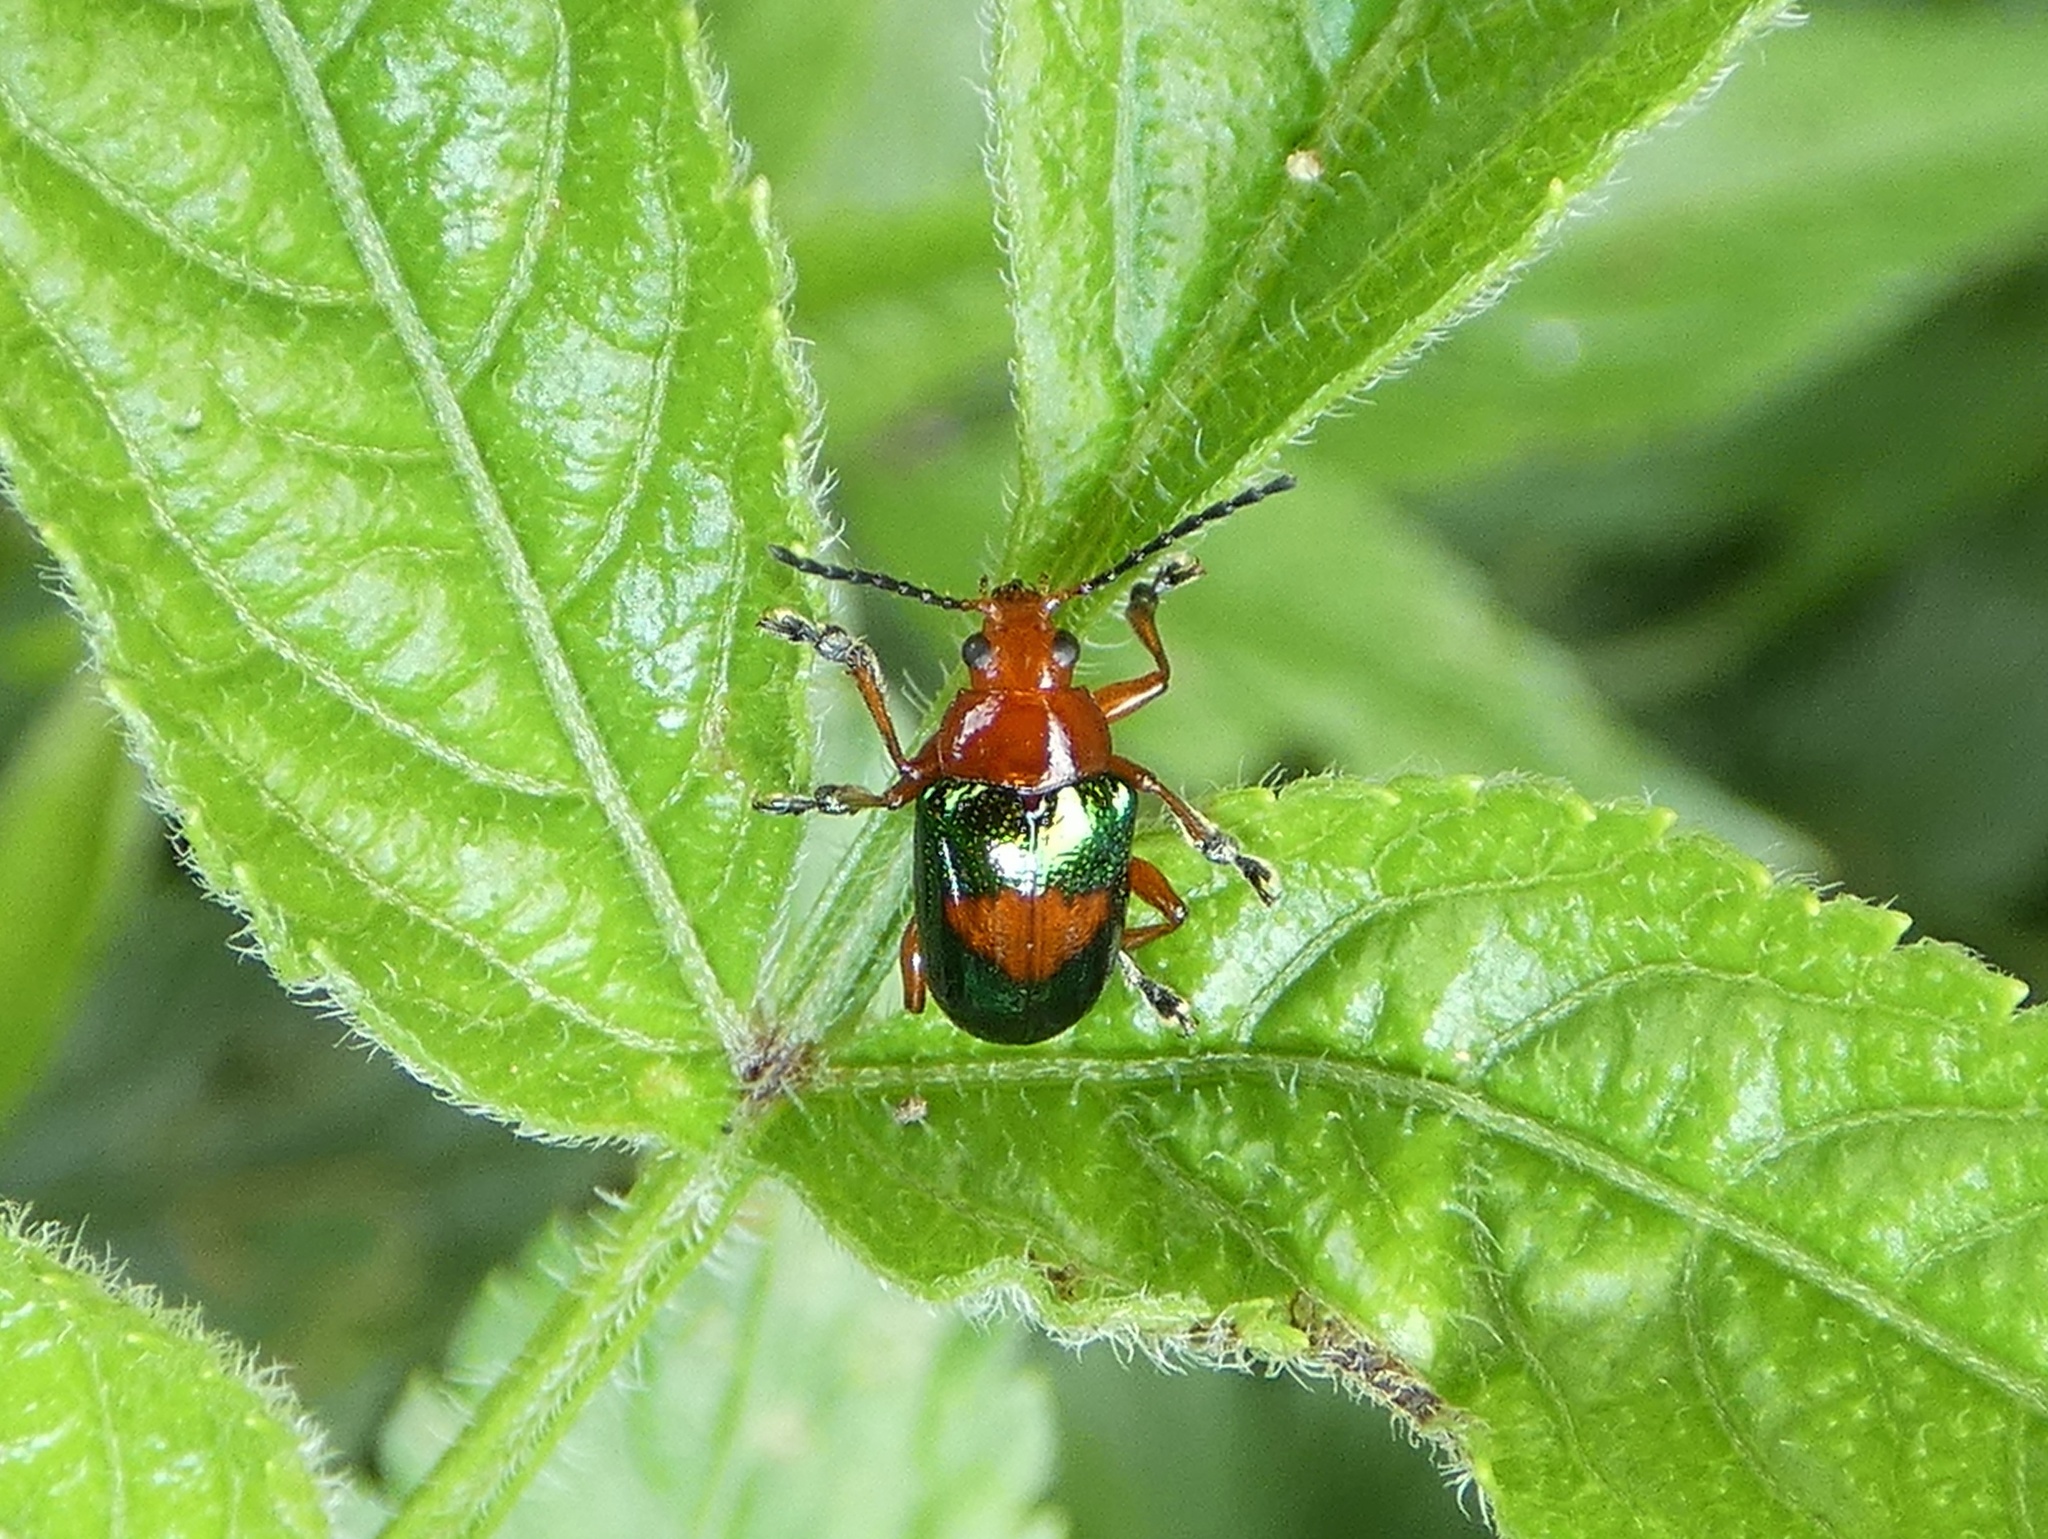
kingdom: Animalia
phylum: Arthropoda
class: Insecta
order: Coleoptera
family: Chrysomelidae
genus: Chalcophana
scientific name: Chalcophana
